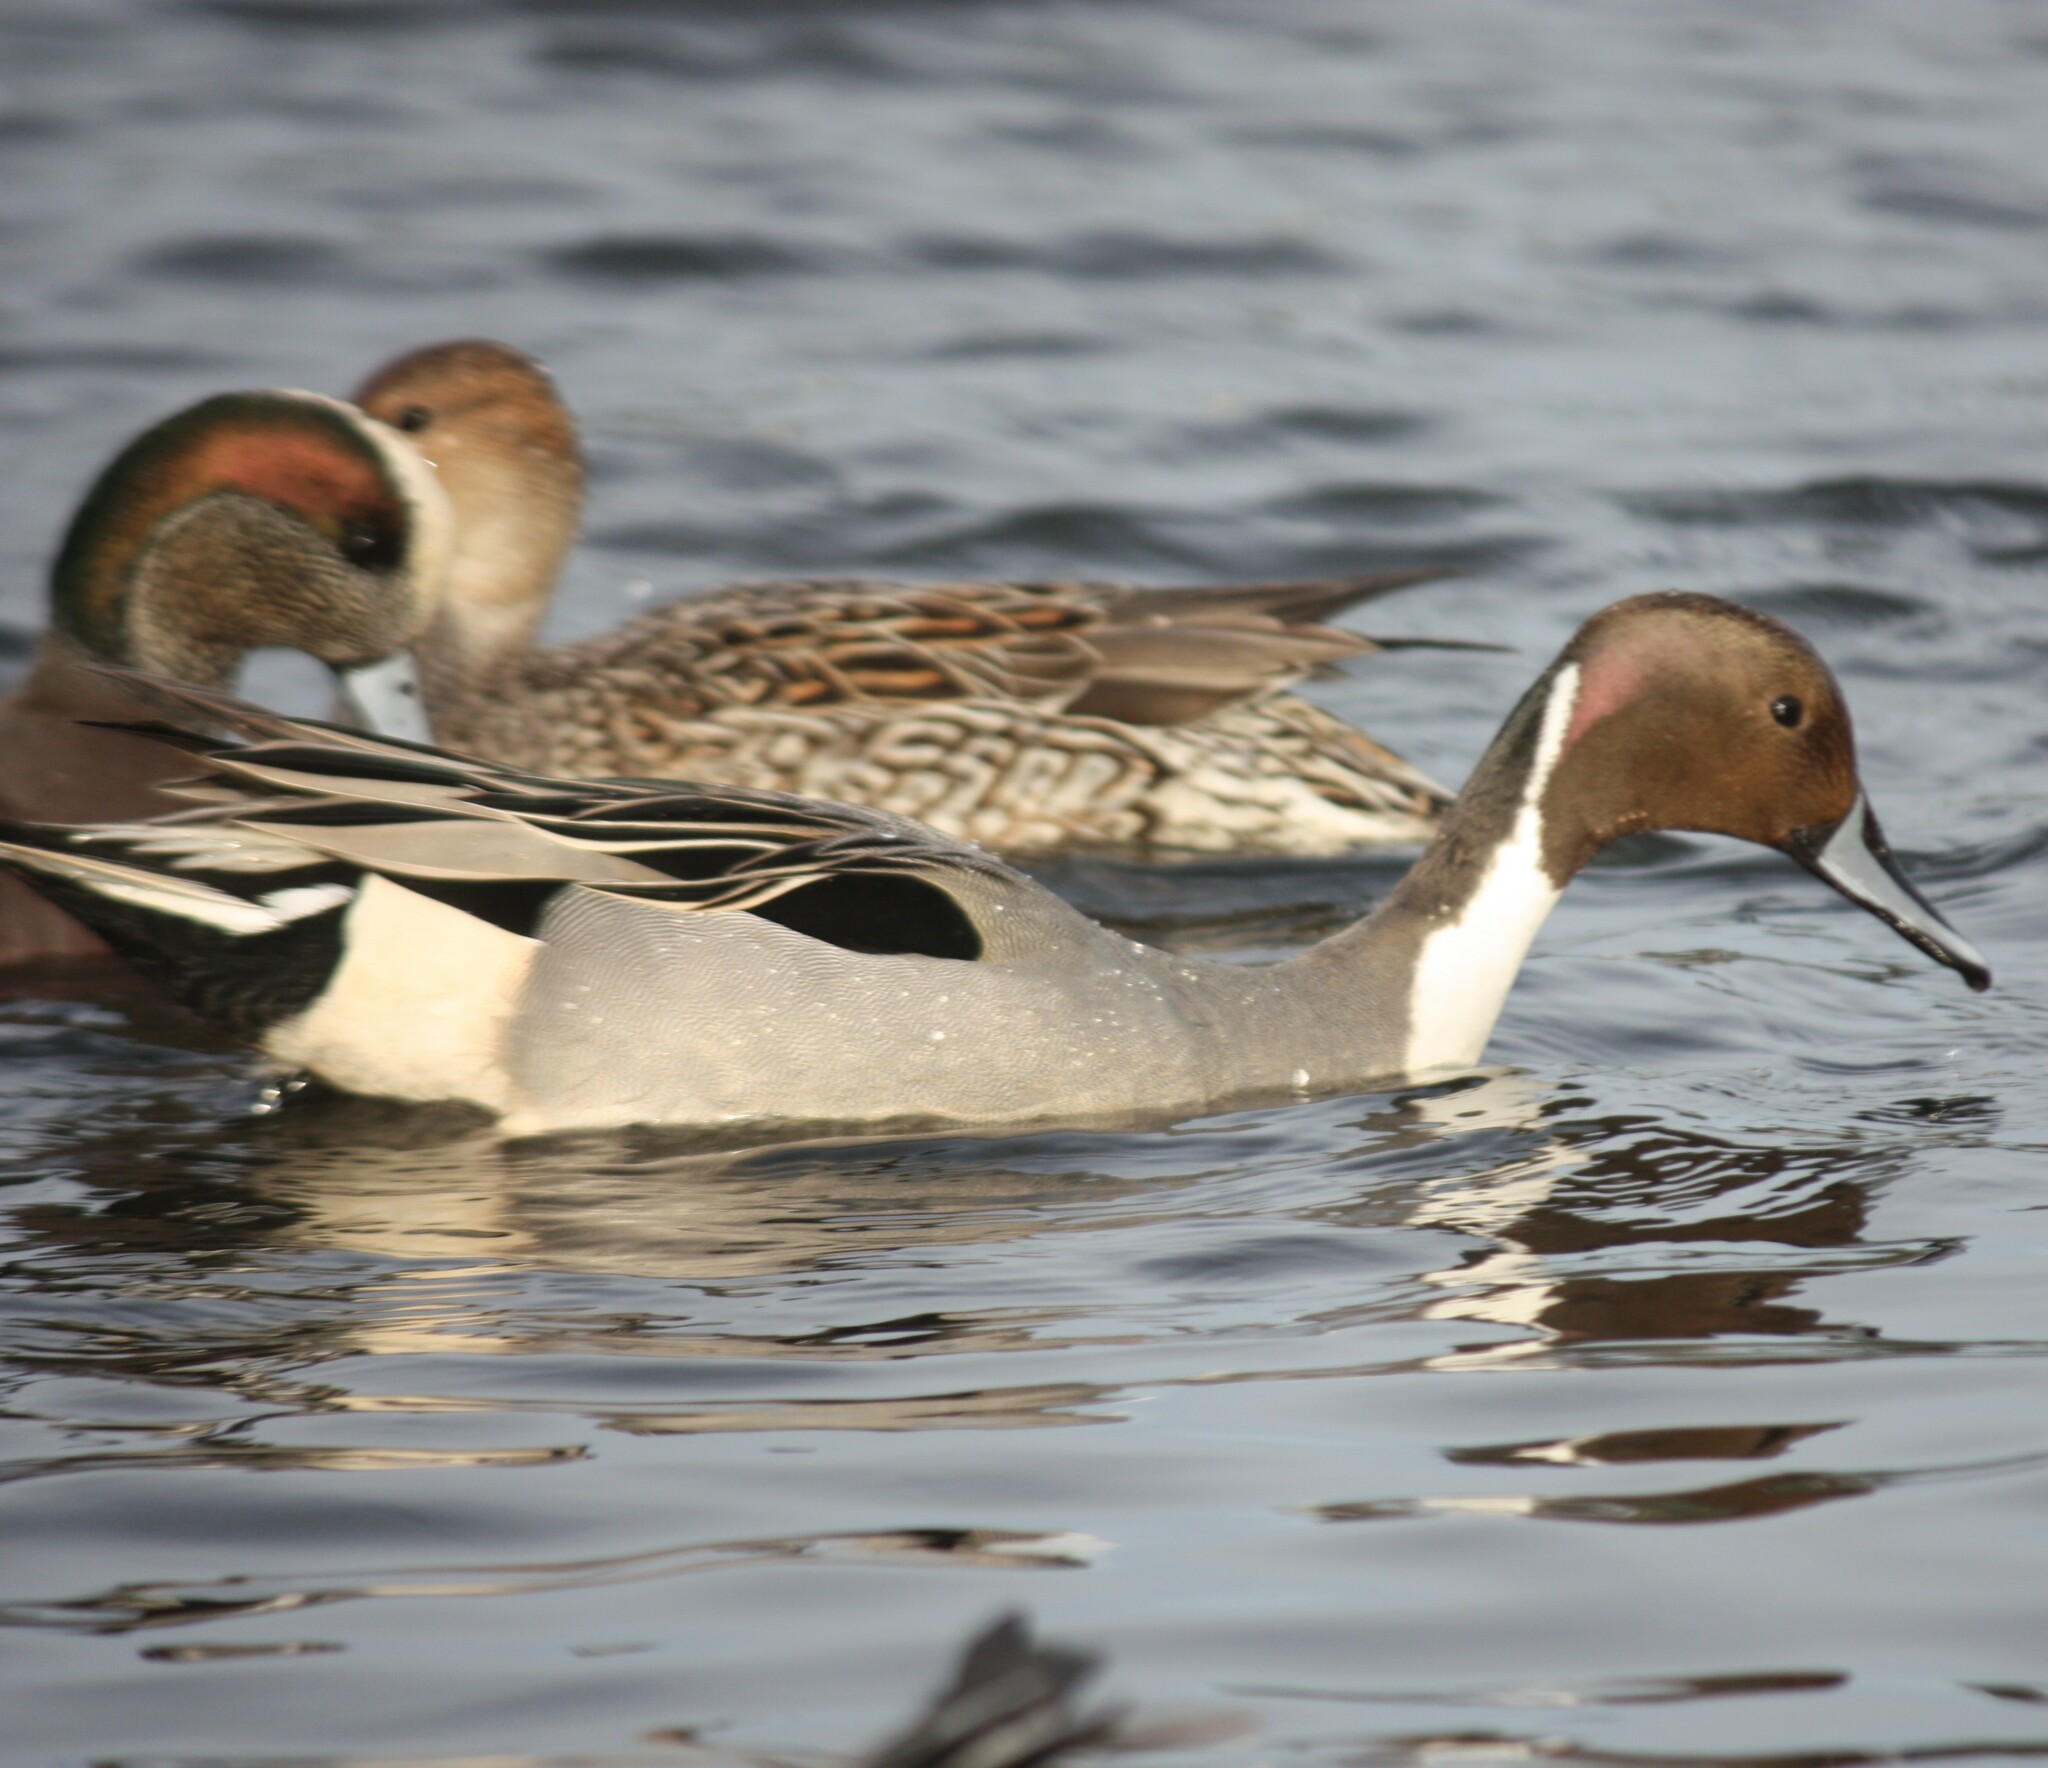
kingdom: Animalia
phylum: Chordata
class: Aves
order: Anseriformes
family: Anatidae
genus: Anas
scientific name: Anas acuta
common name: Northern pintail
